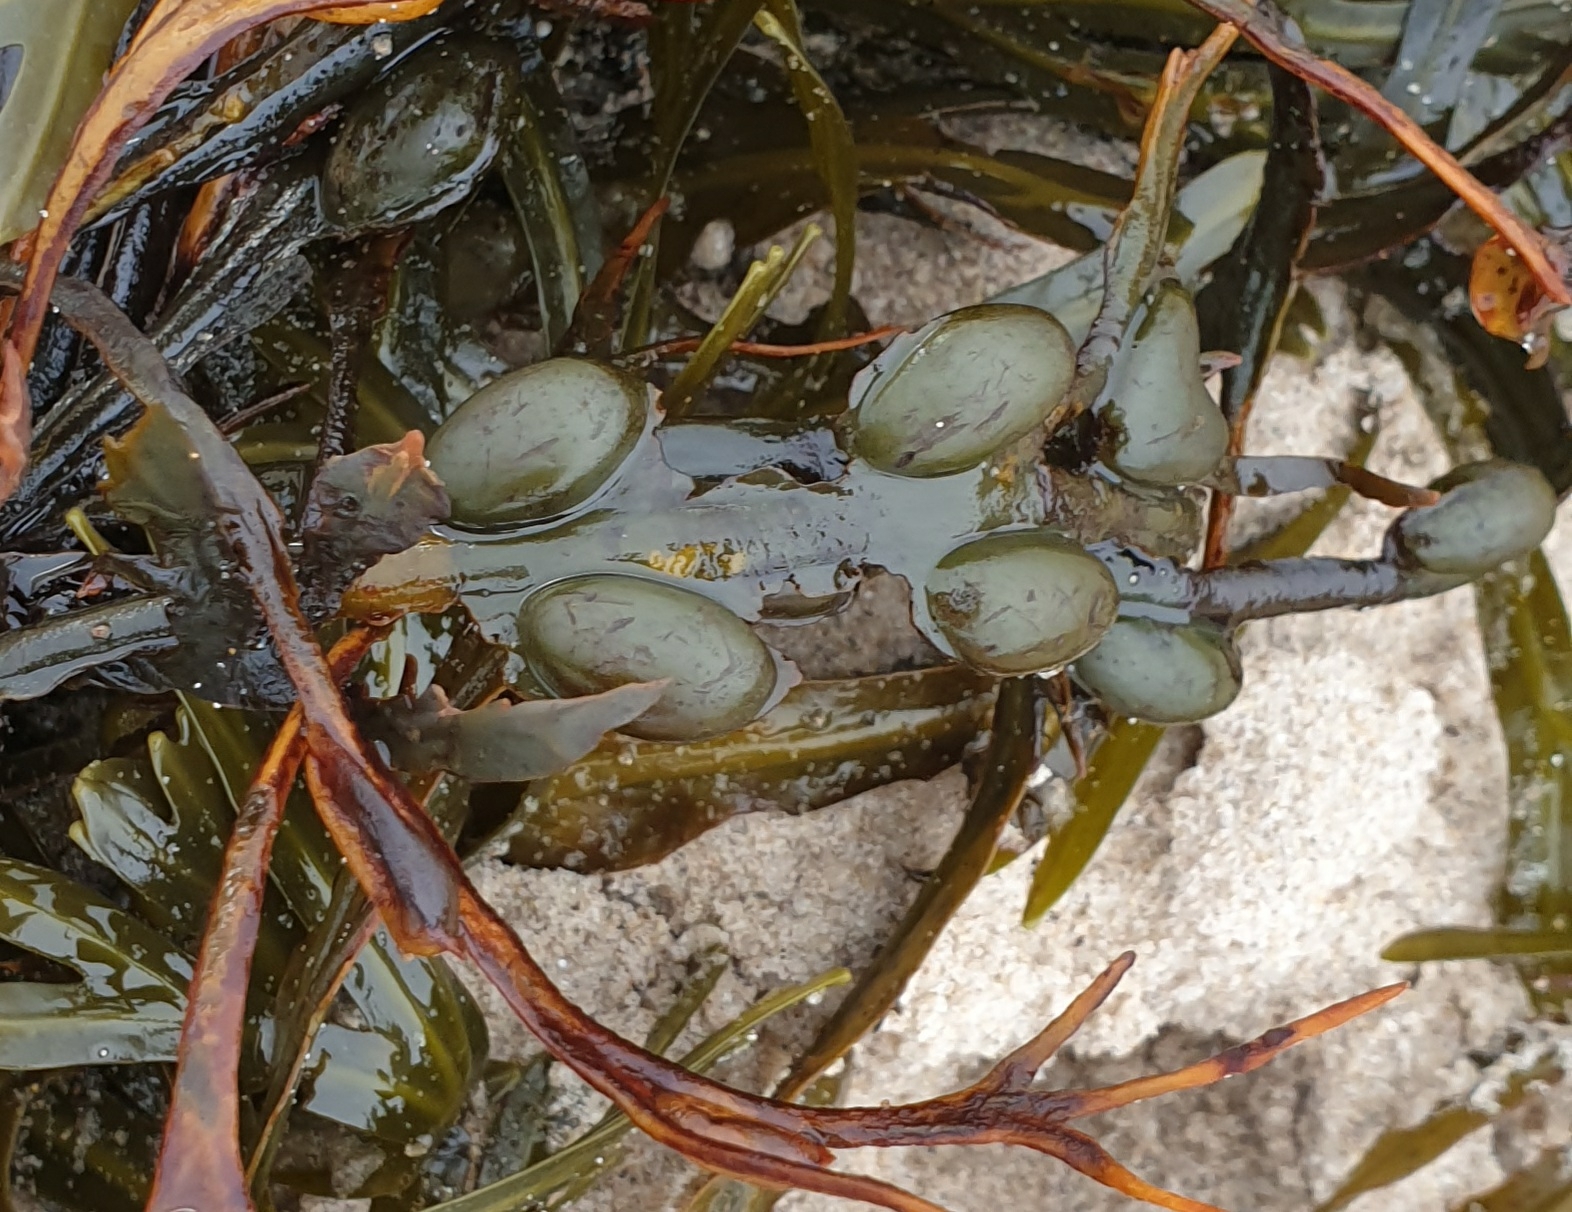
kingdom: Chromista
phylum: Ochrophyta
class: Phaeophyceae
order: Fucales
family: Fucaceae
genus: Fucus
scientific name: Fucus vesiculosus
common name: Bladder wrack
